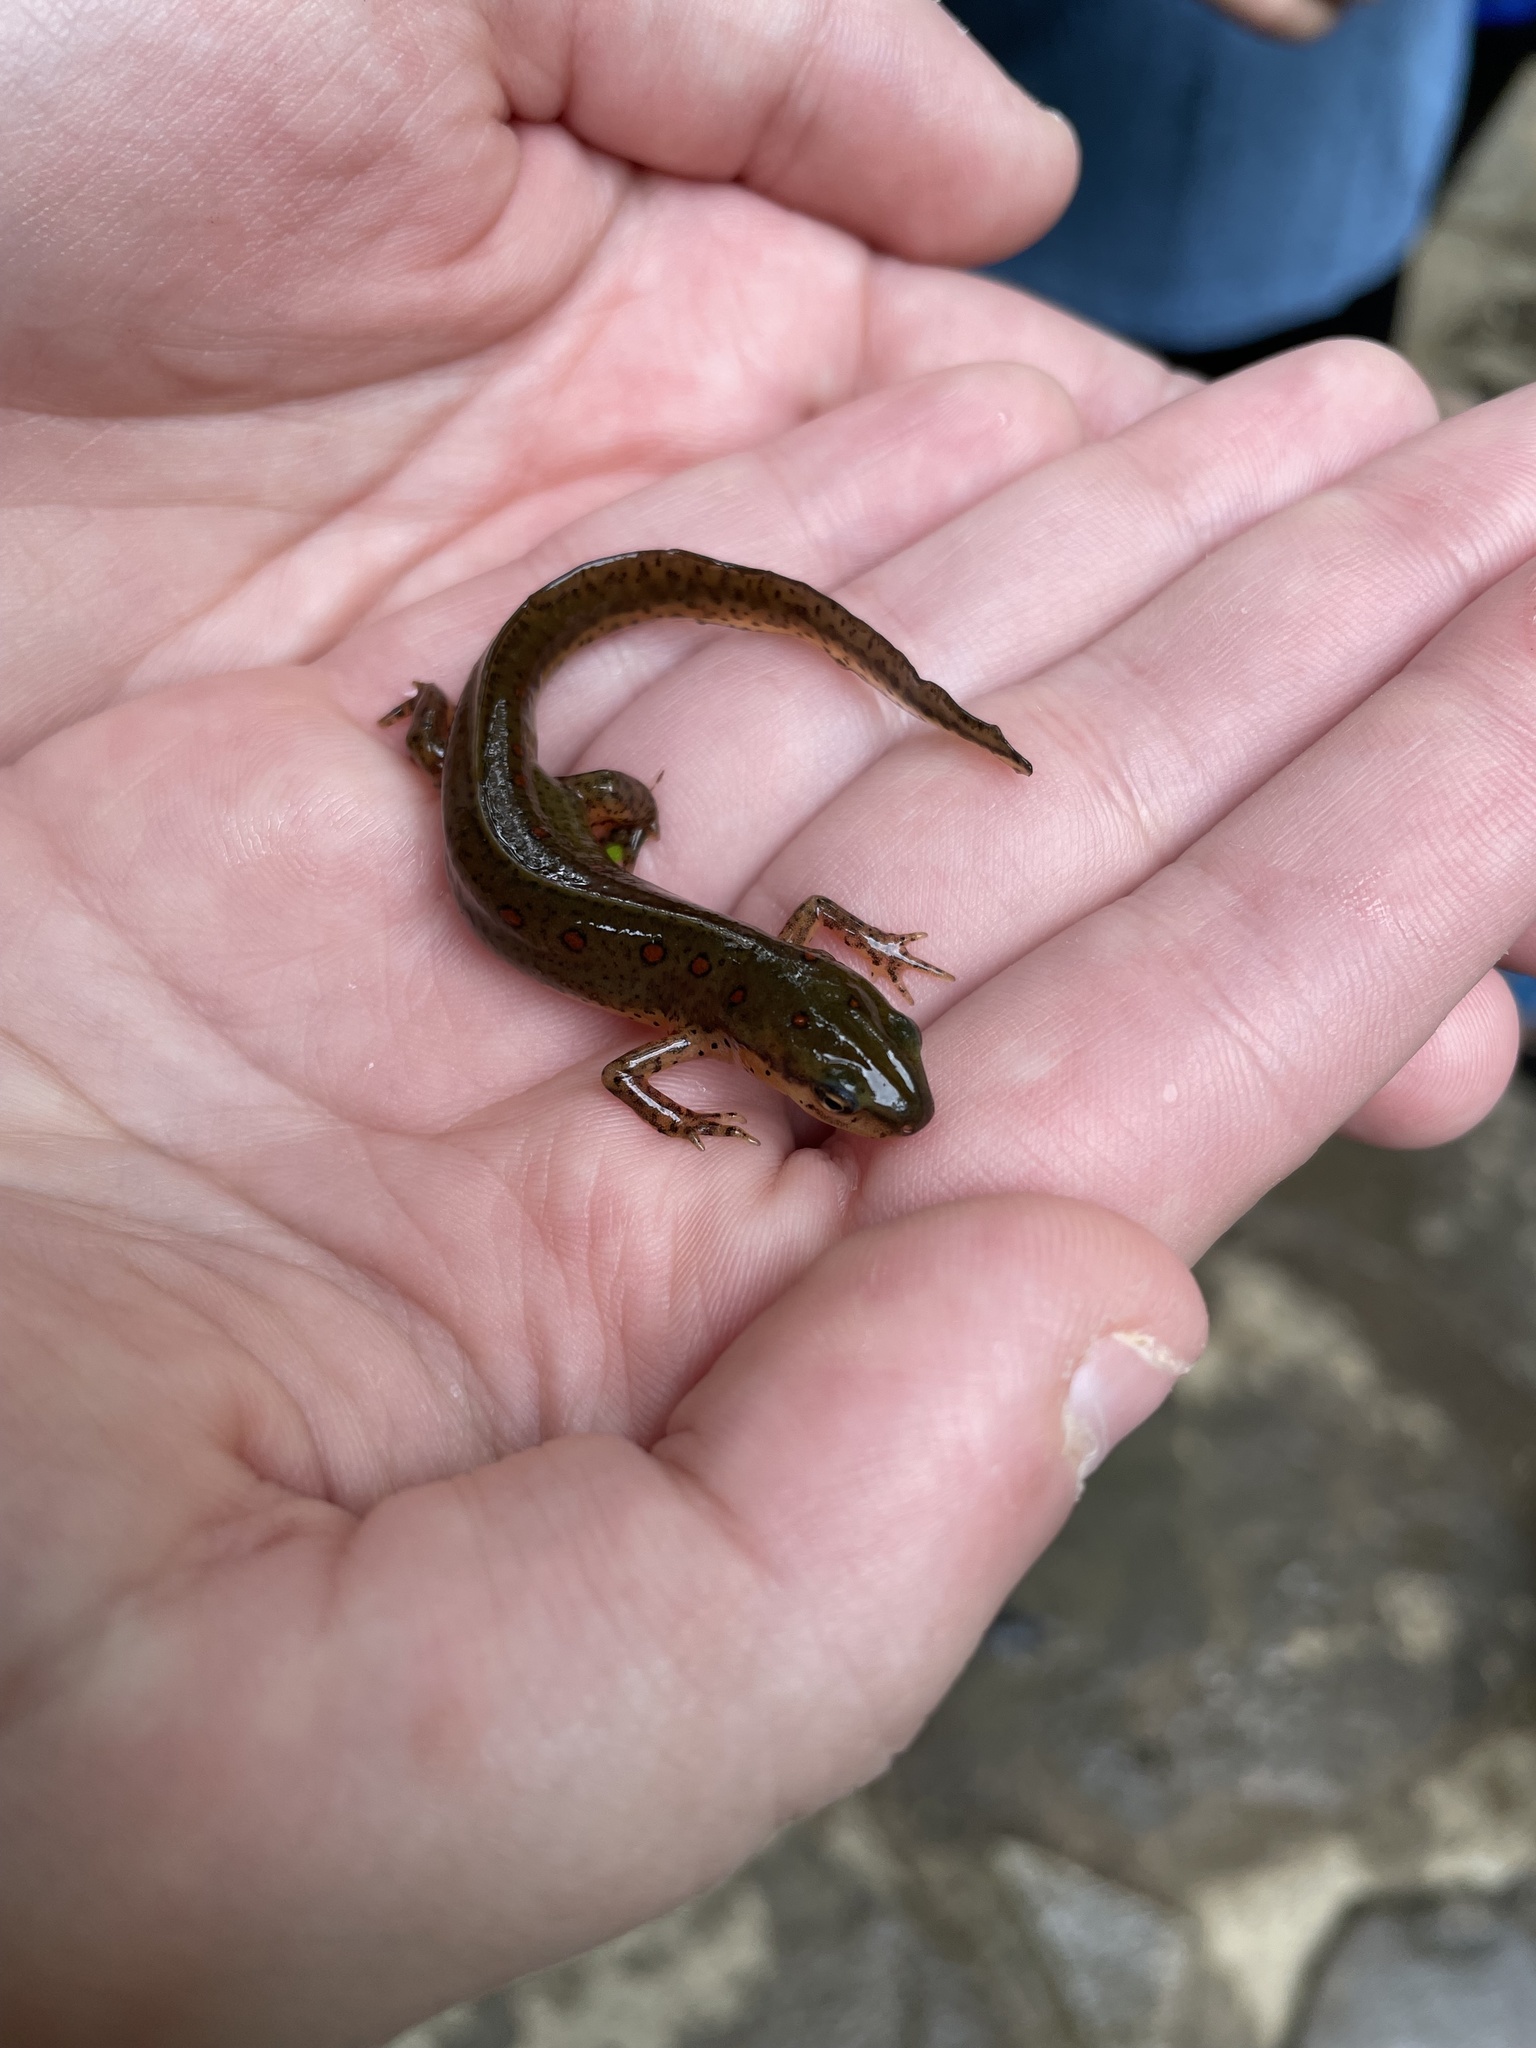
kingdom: Animalia
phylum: Chordata
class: Amphibia
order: Caudata
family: Salamandridae
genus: Notophthalmus
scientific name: Notophthalmus viridescens
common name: Eastern newt
